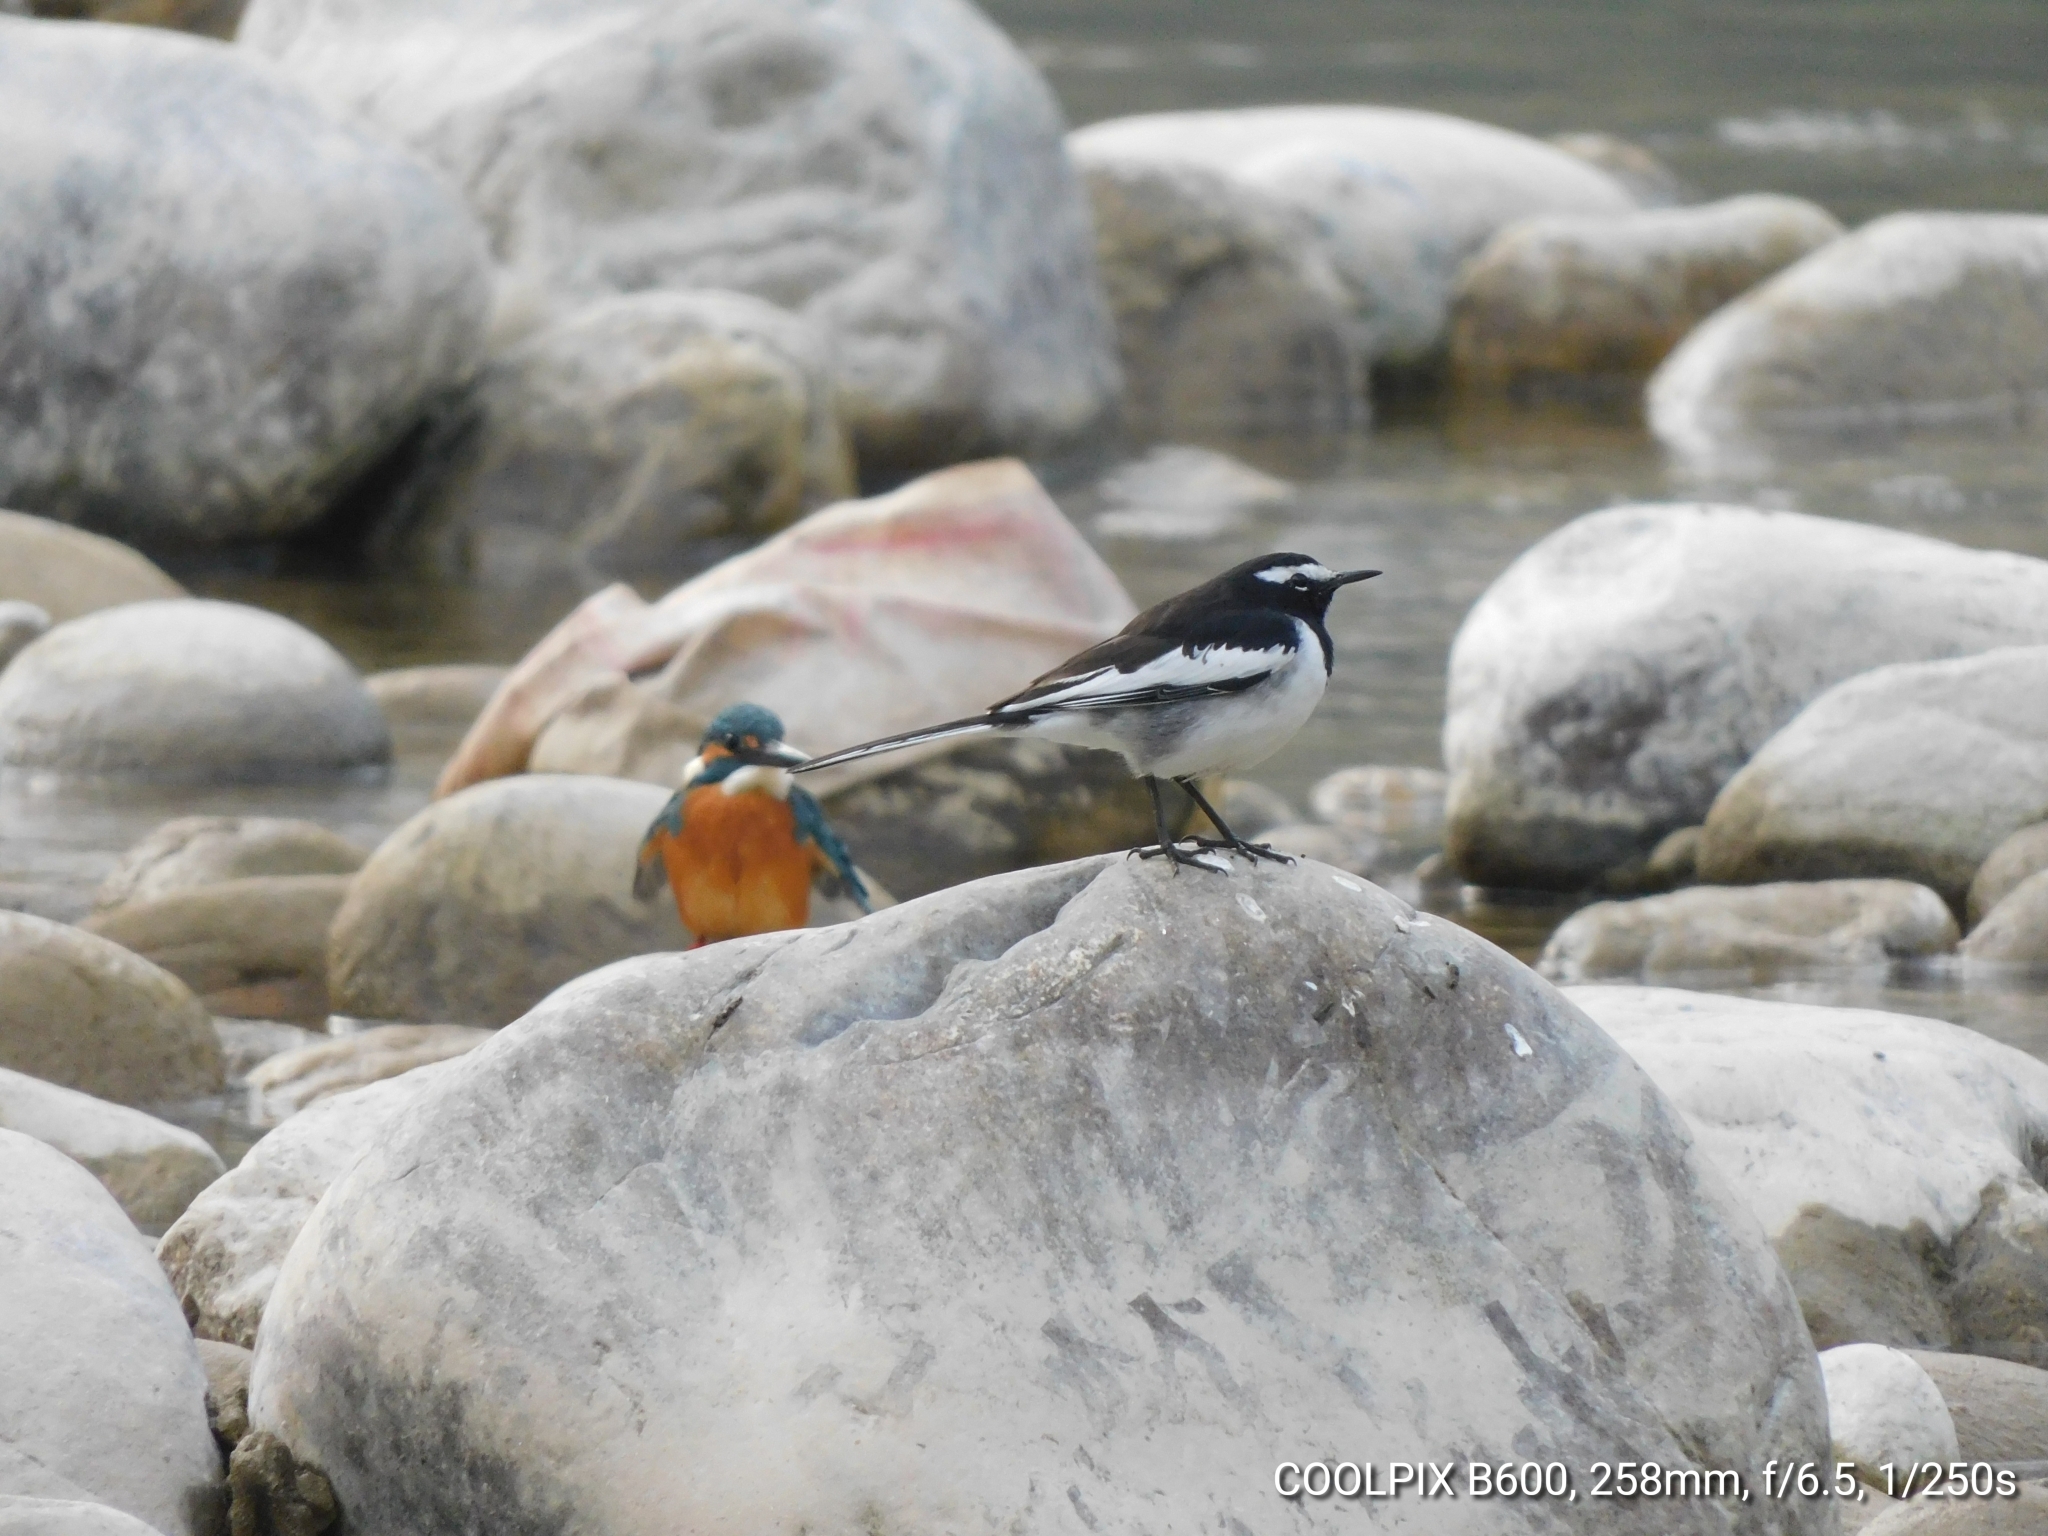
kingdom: Animalia
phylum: Chordata
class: Aves
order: Passeriformes
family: Motacillidae
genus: Motacilla
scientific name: Motacilla maderaspatensis
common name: White-browed wagtail
